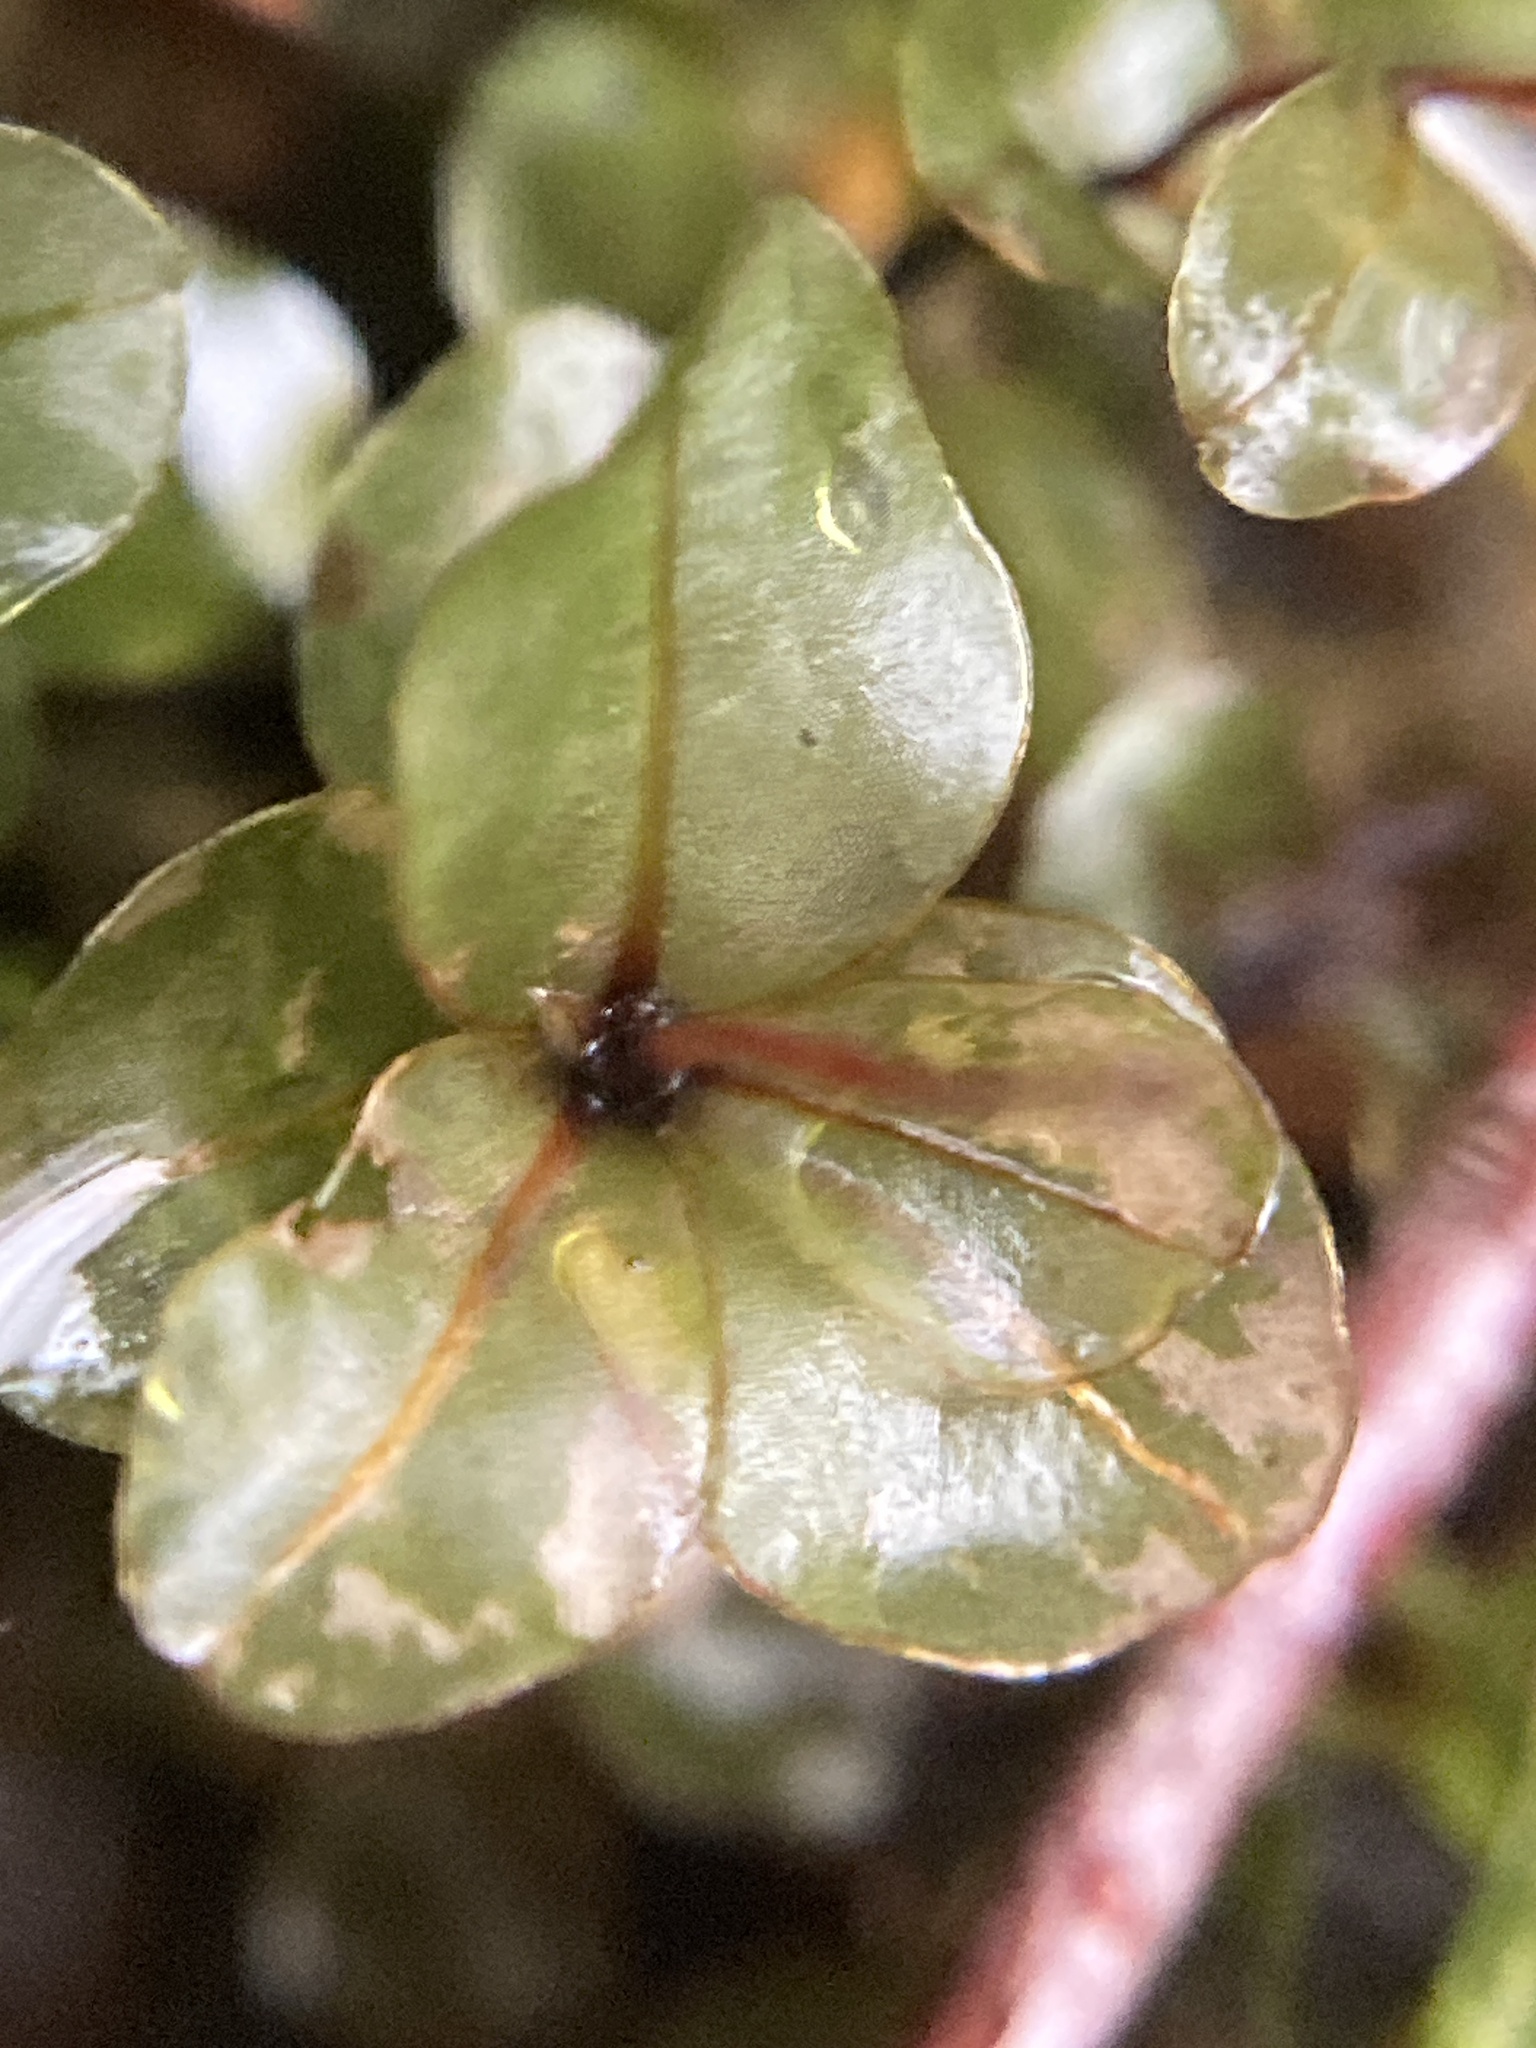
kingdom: Plantae
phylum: Bryophyta
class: Bryopsida
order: Bryales
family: Mniaceae
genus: Rhizomnium
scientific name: Rhizomnium punctatum
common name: Dotted leafy moss
